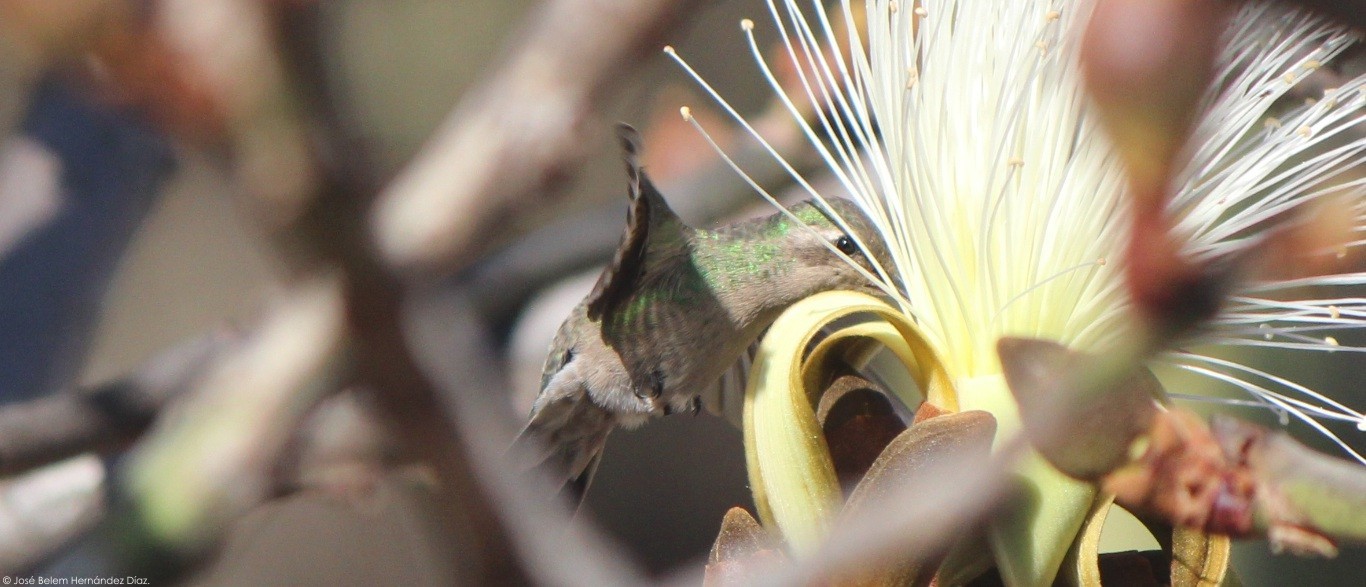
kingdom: Animalia
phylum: Chordata
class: Aves
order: Apodiformes
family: Trochilidae
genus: Cynanthus
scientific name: Cynanthus latirostris
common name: Broad-billed hummingbird
